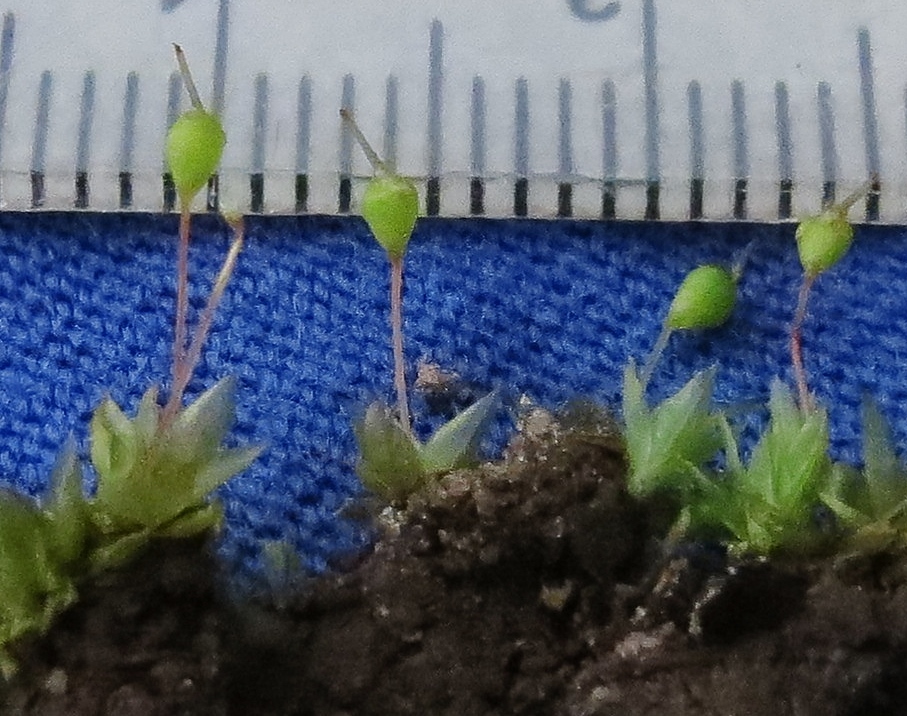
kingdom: Plantae
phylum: Bryophyta
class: Bryopsida
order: Funariales
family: Funariaceae
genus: Physcomitrium
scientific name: Physcomitrium pyriforme
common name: Common bladder-moss
